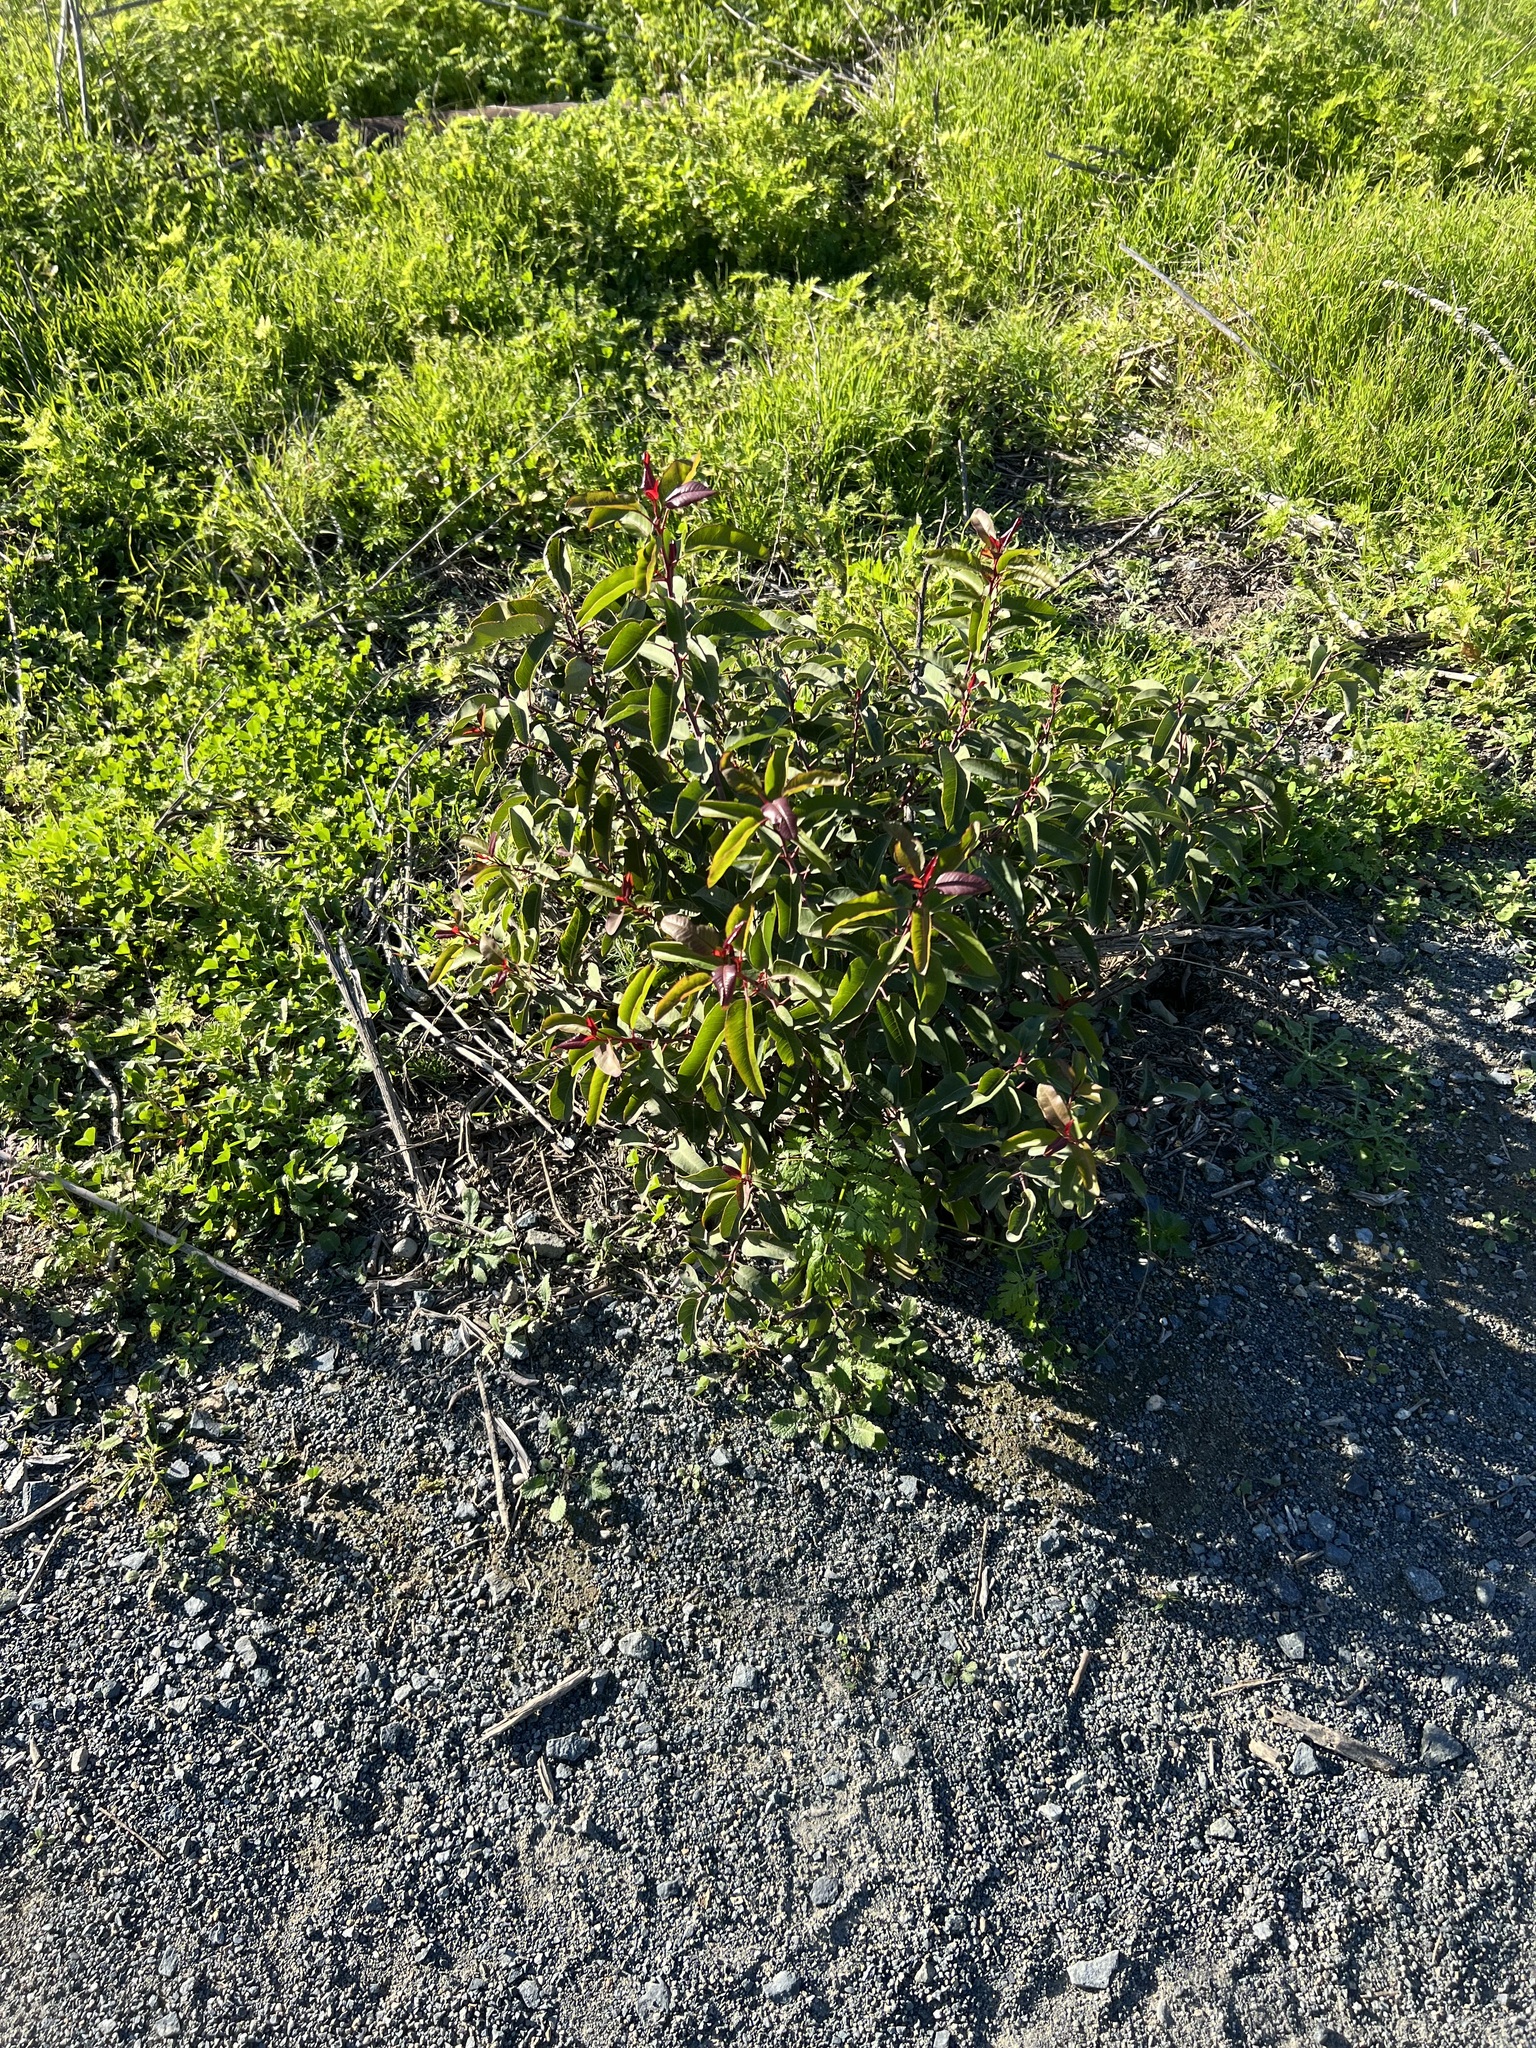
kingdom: Plantae
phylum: Tracheophyta
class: Magnoliopsida
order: Sapindales
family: Anacardiaceae
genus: Malosma
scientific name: Malosma laurina
